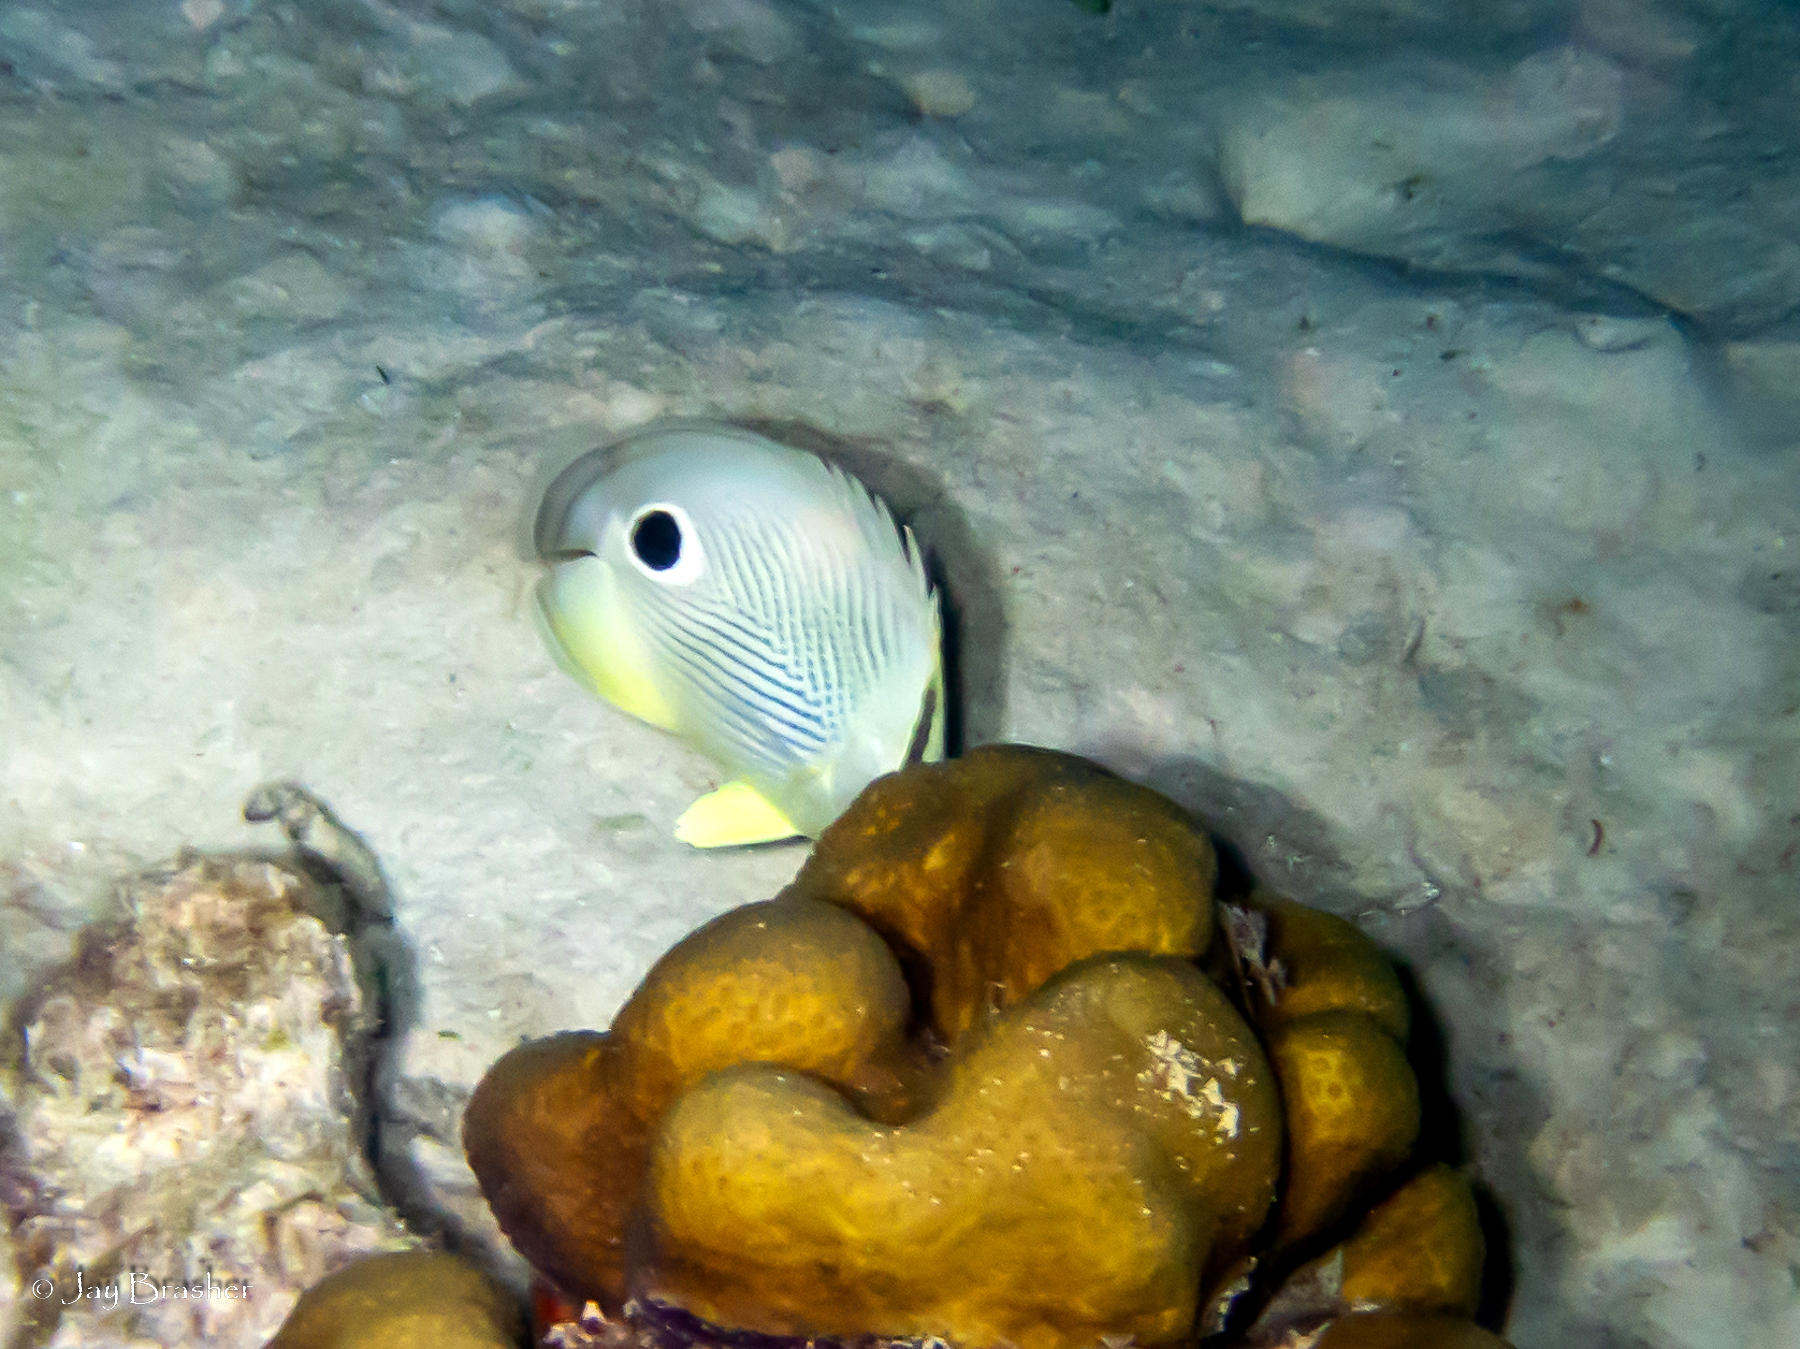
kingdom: Animalia
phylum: Chordata
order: Perciformes
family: Chaetodontidae
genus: Chaetodon
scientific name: Chaetodon capistratus
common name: Kete
